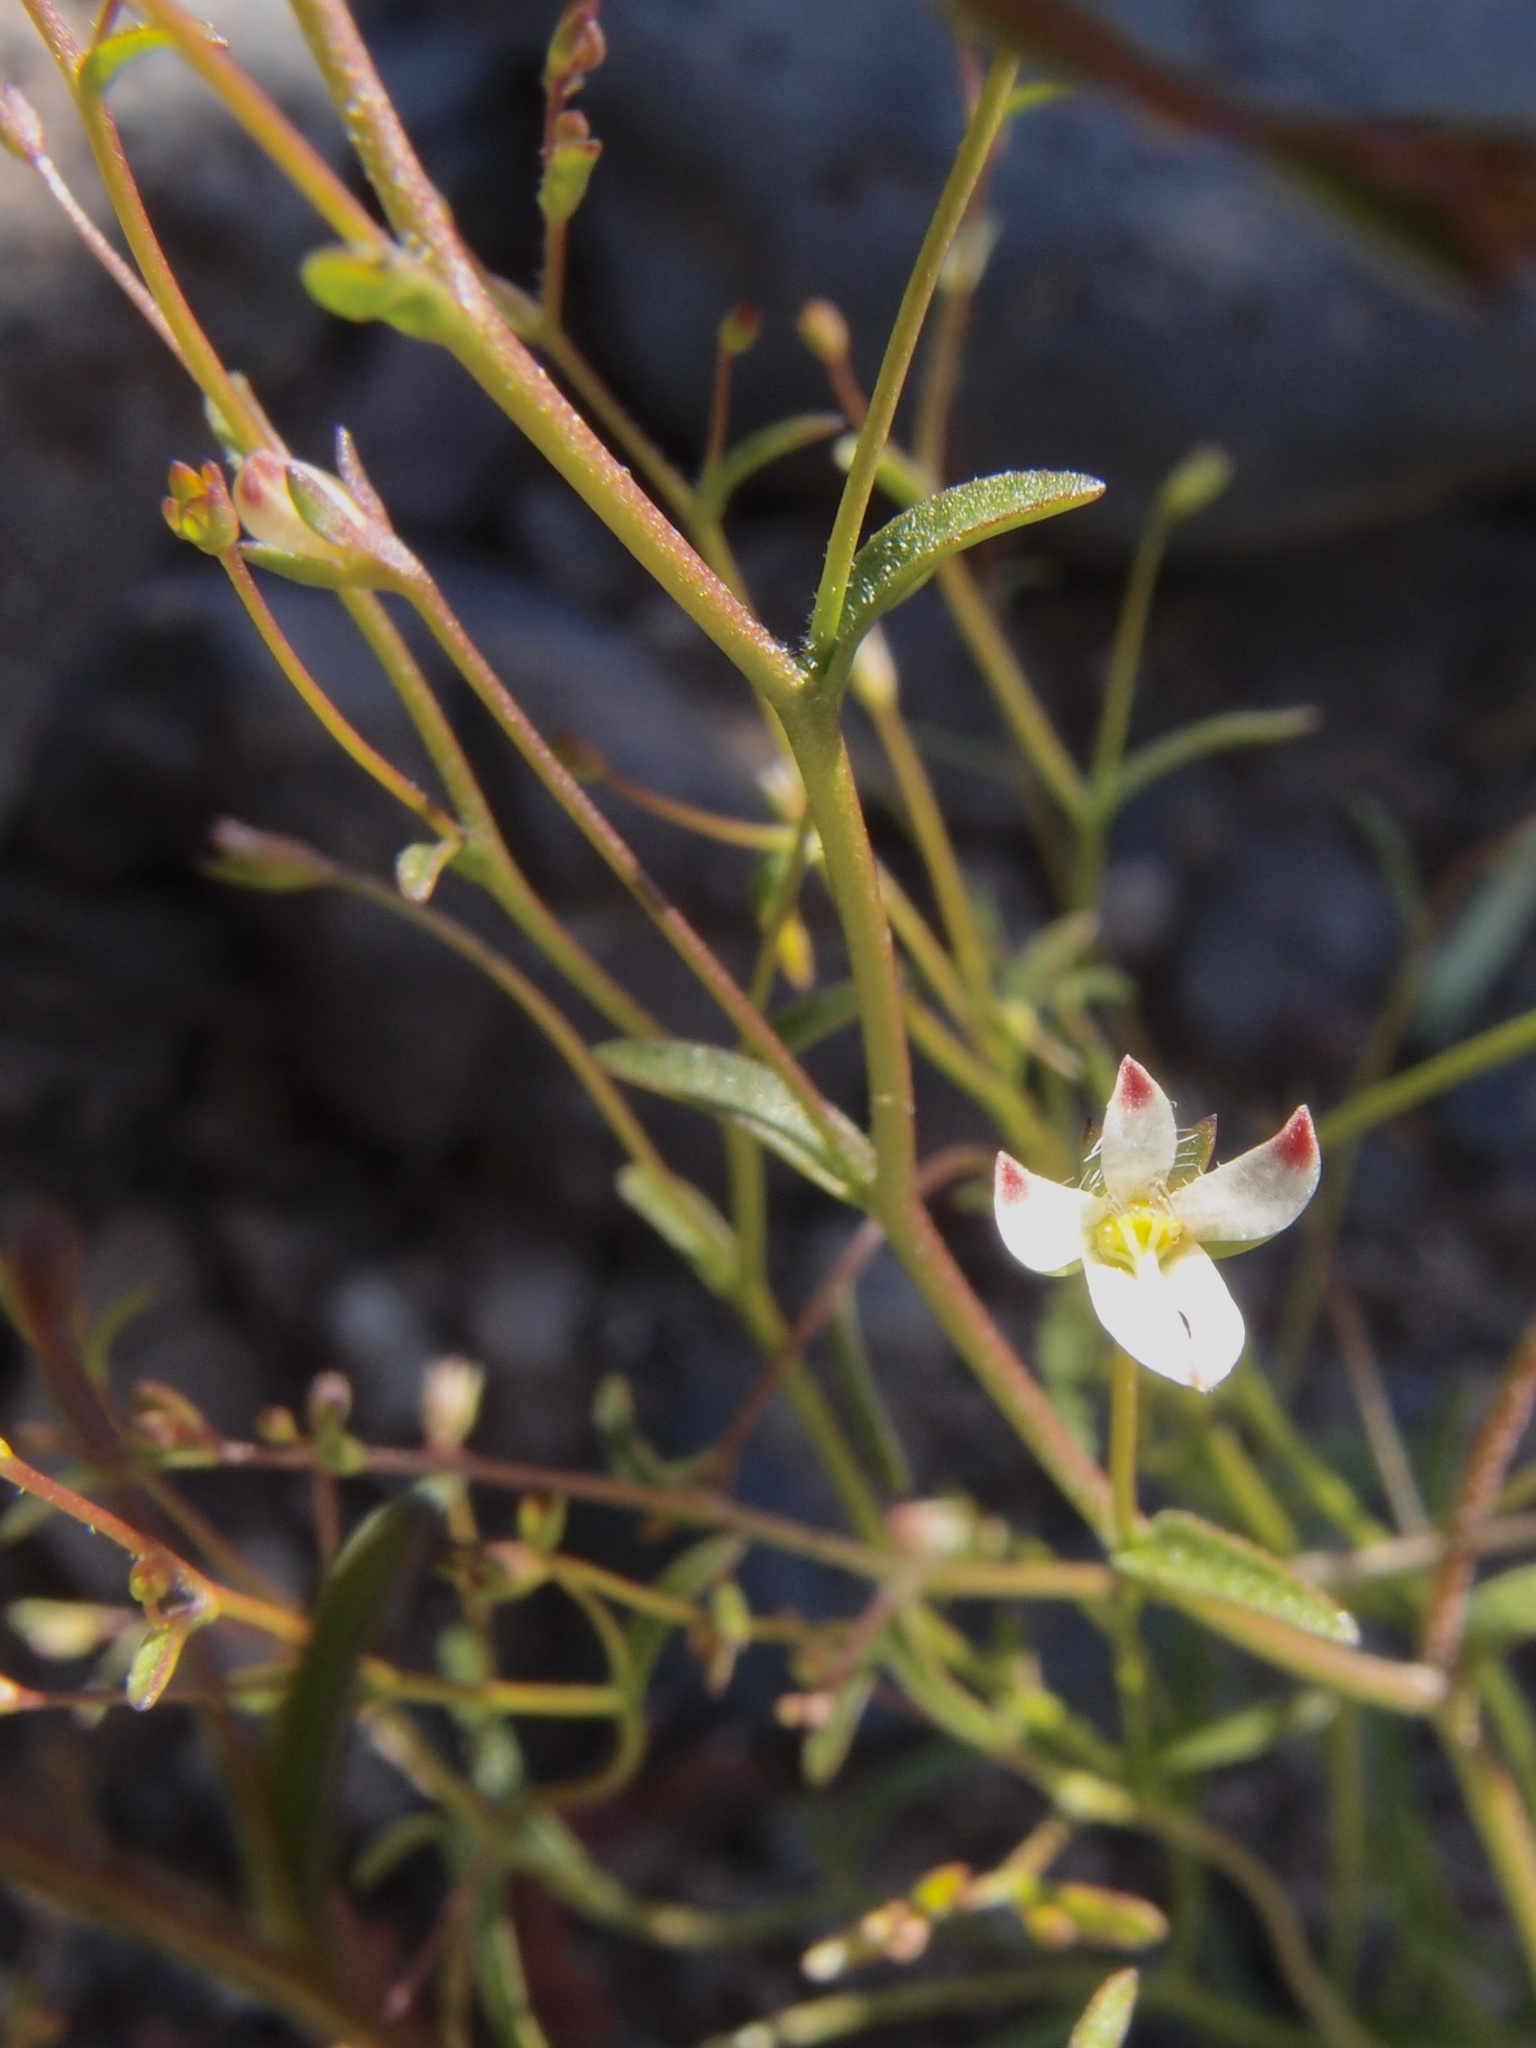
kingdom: Plantae
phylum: Tracheophyta
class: Magnoliopsida
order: Asterales
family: Campanulaceae
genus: Nemacladus
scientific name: Nemacladus orientalis
